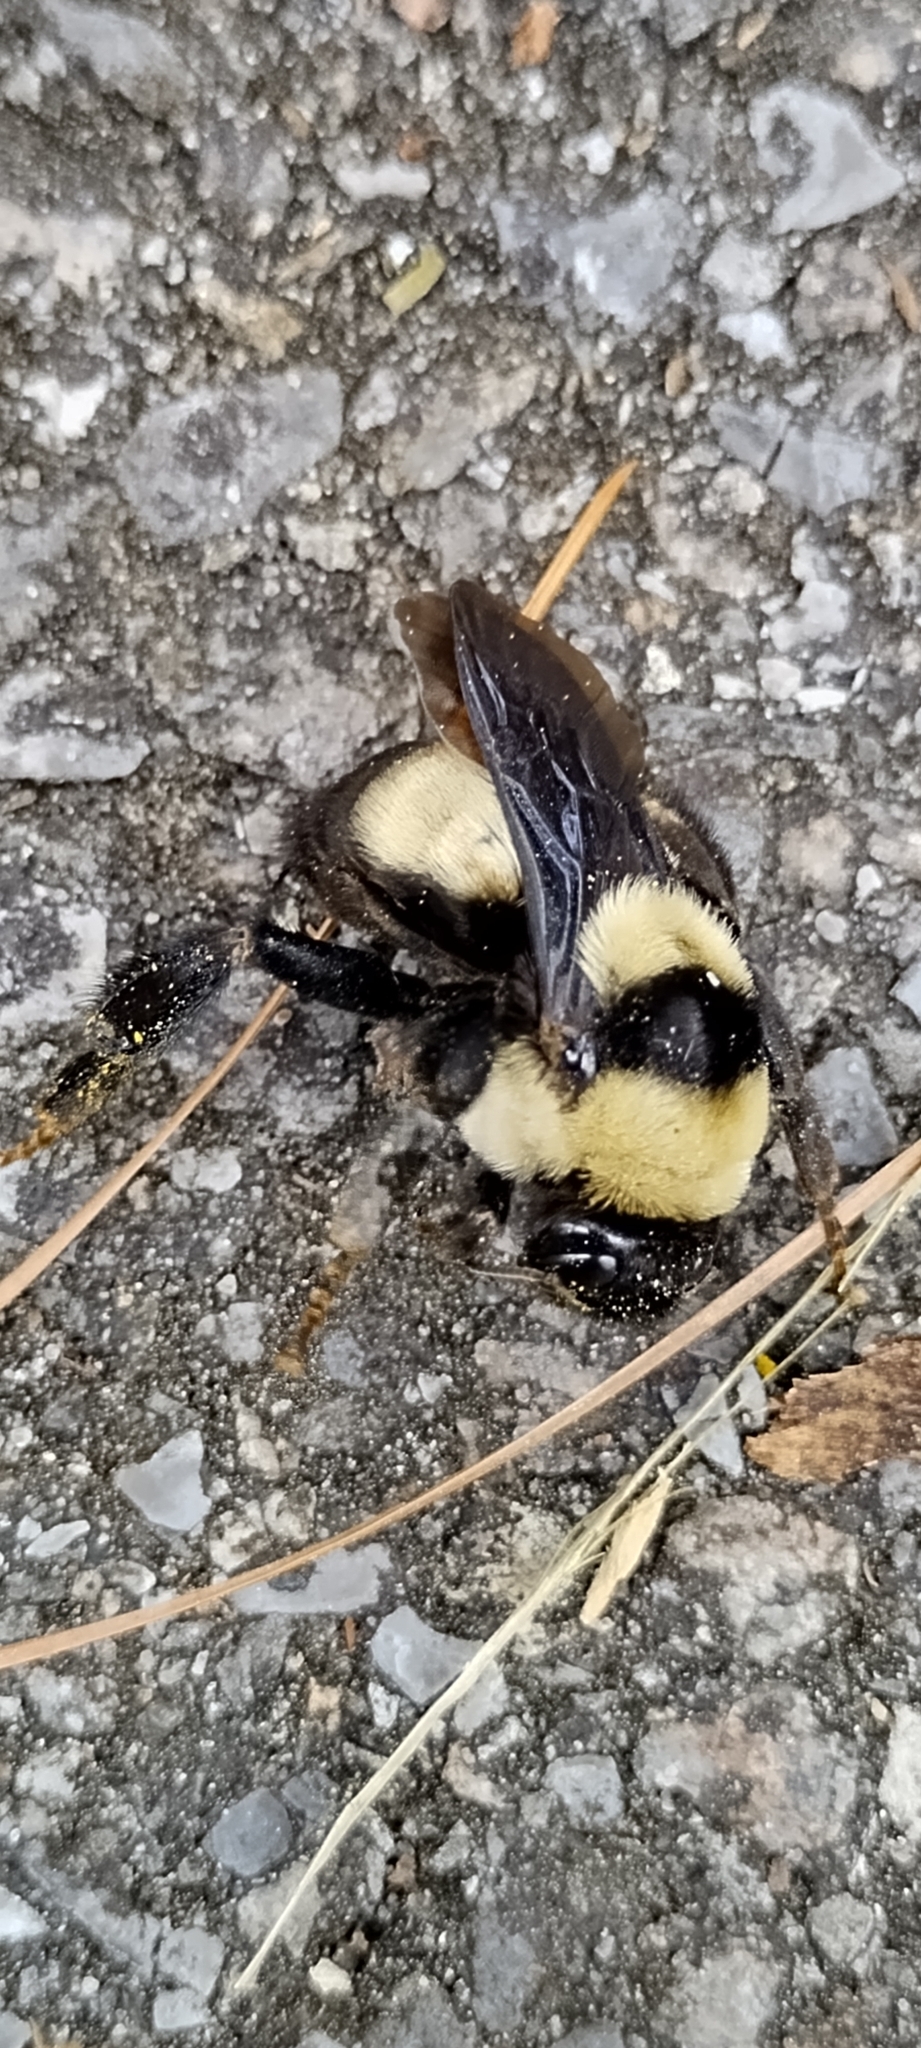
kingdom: Animalia
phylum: Arthropoda
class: Insecta
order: Hymenoptera
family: Apidae
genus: Bombus
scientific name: Bombus fraternus
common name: Southern plains bumble bee
